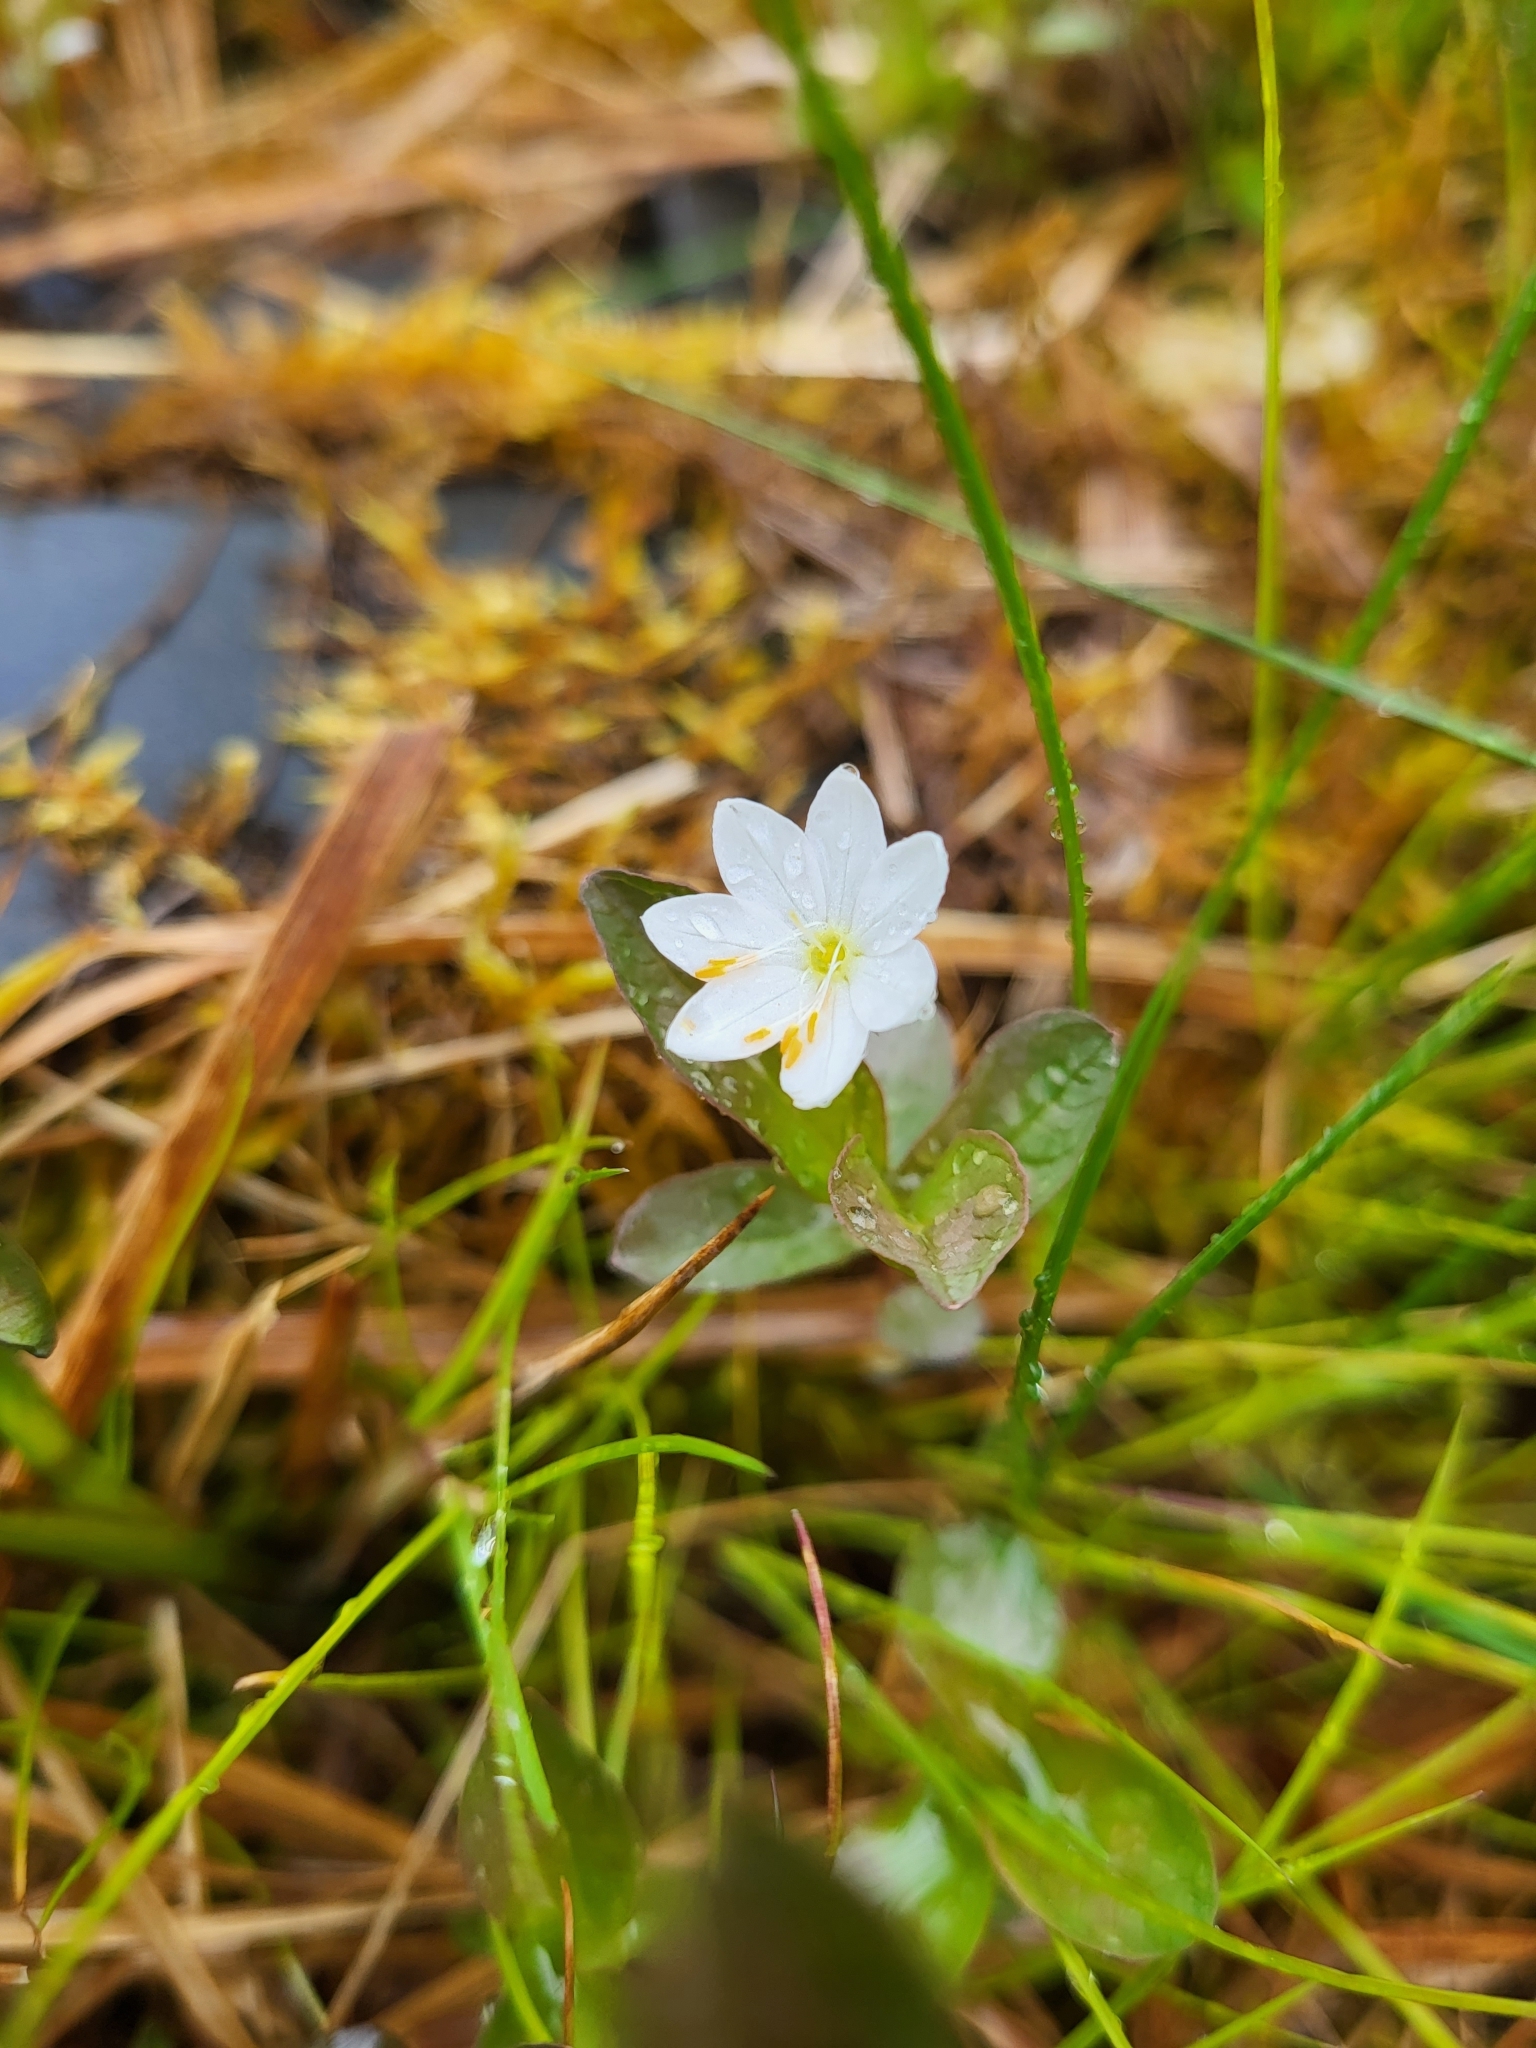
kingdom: Plantae
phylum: Tracheophyta
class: Magnoliopsida
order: Ericales
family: Primulaceae
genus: Lysimachia
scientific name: Lysimachia europaea
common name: Arctic starflower
